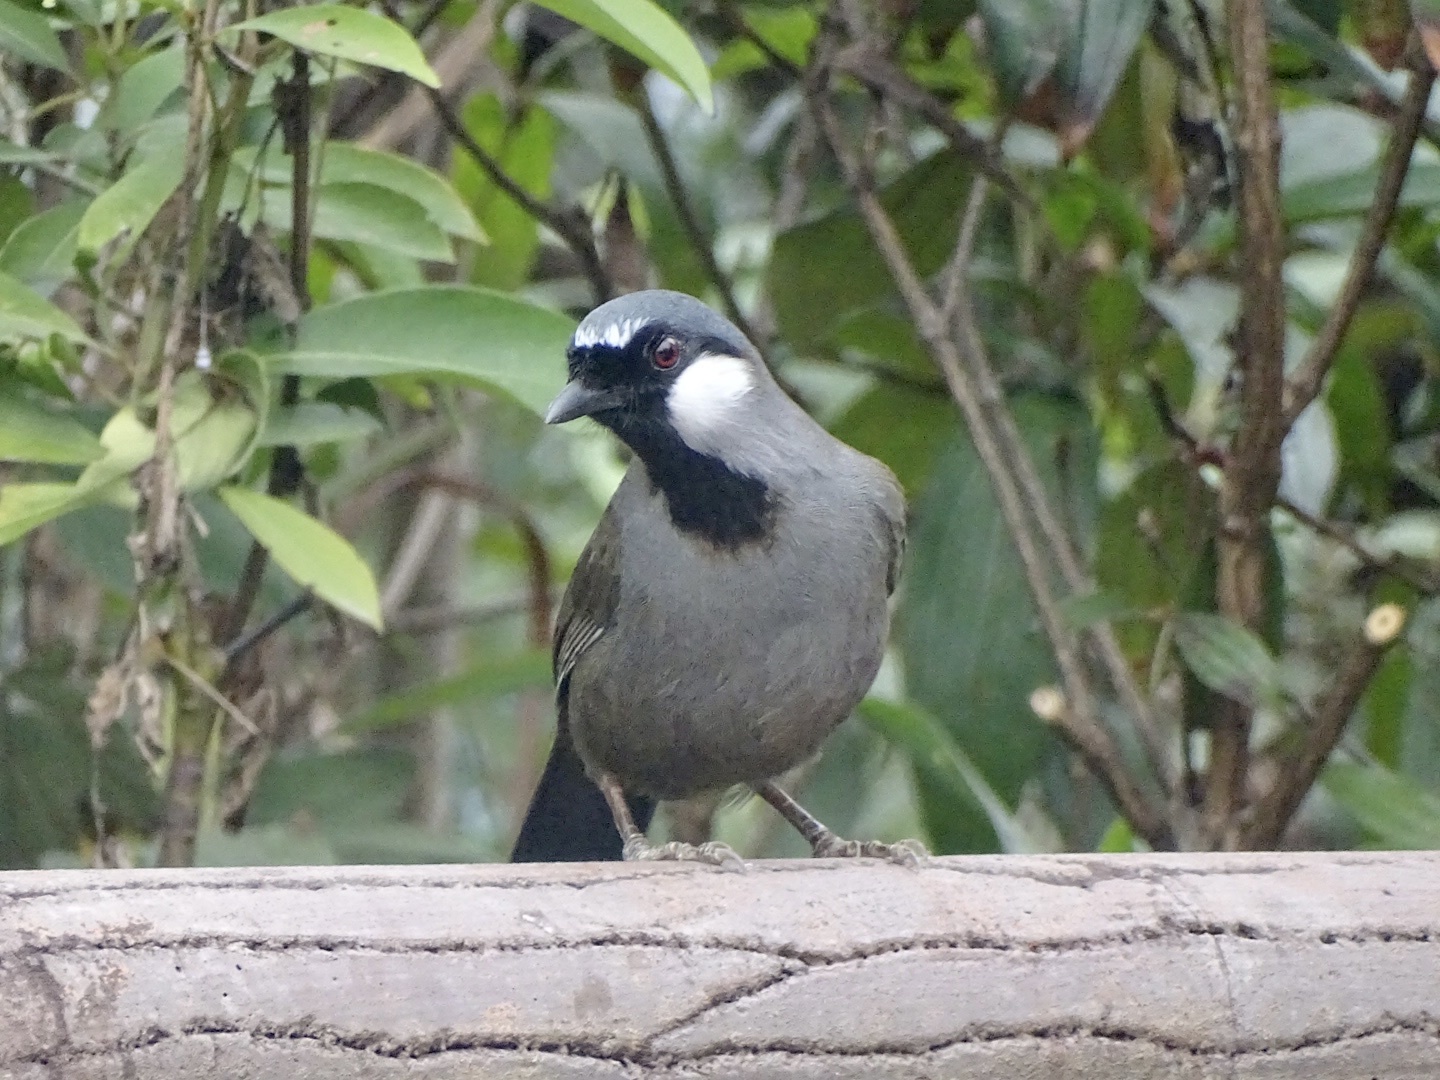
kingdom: Animalia
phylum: Chordata
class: Aves
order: Passeriformes
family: Leiothrichidae
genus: Garrulax
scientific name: Garrulax chinensis
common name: Black-throated laughingthrush
